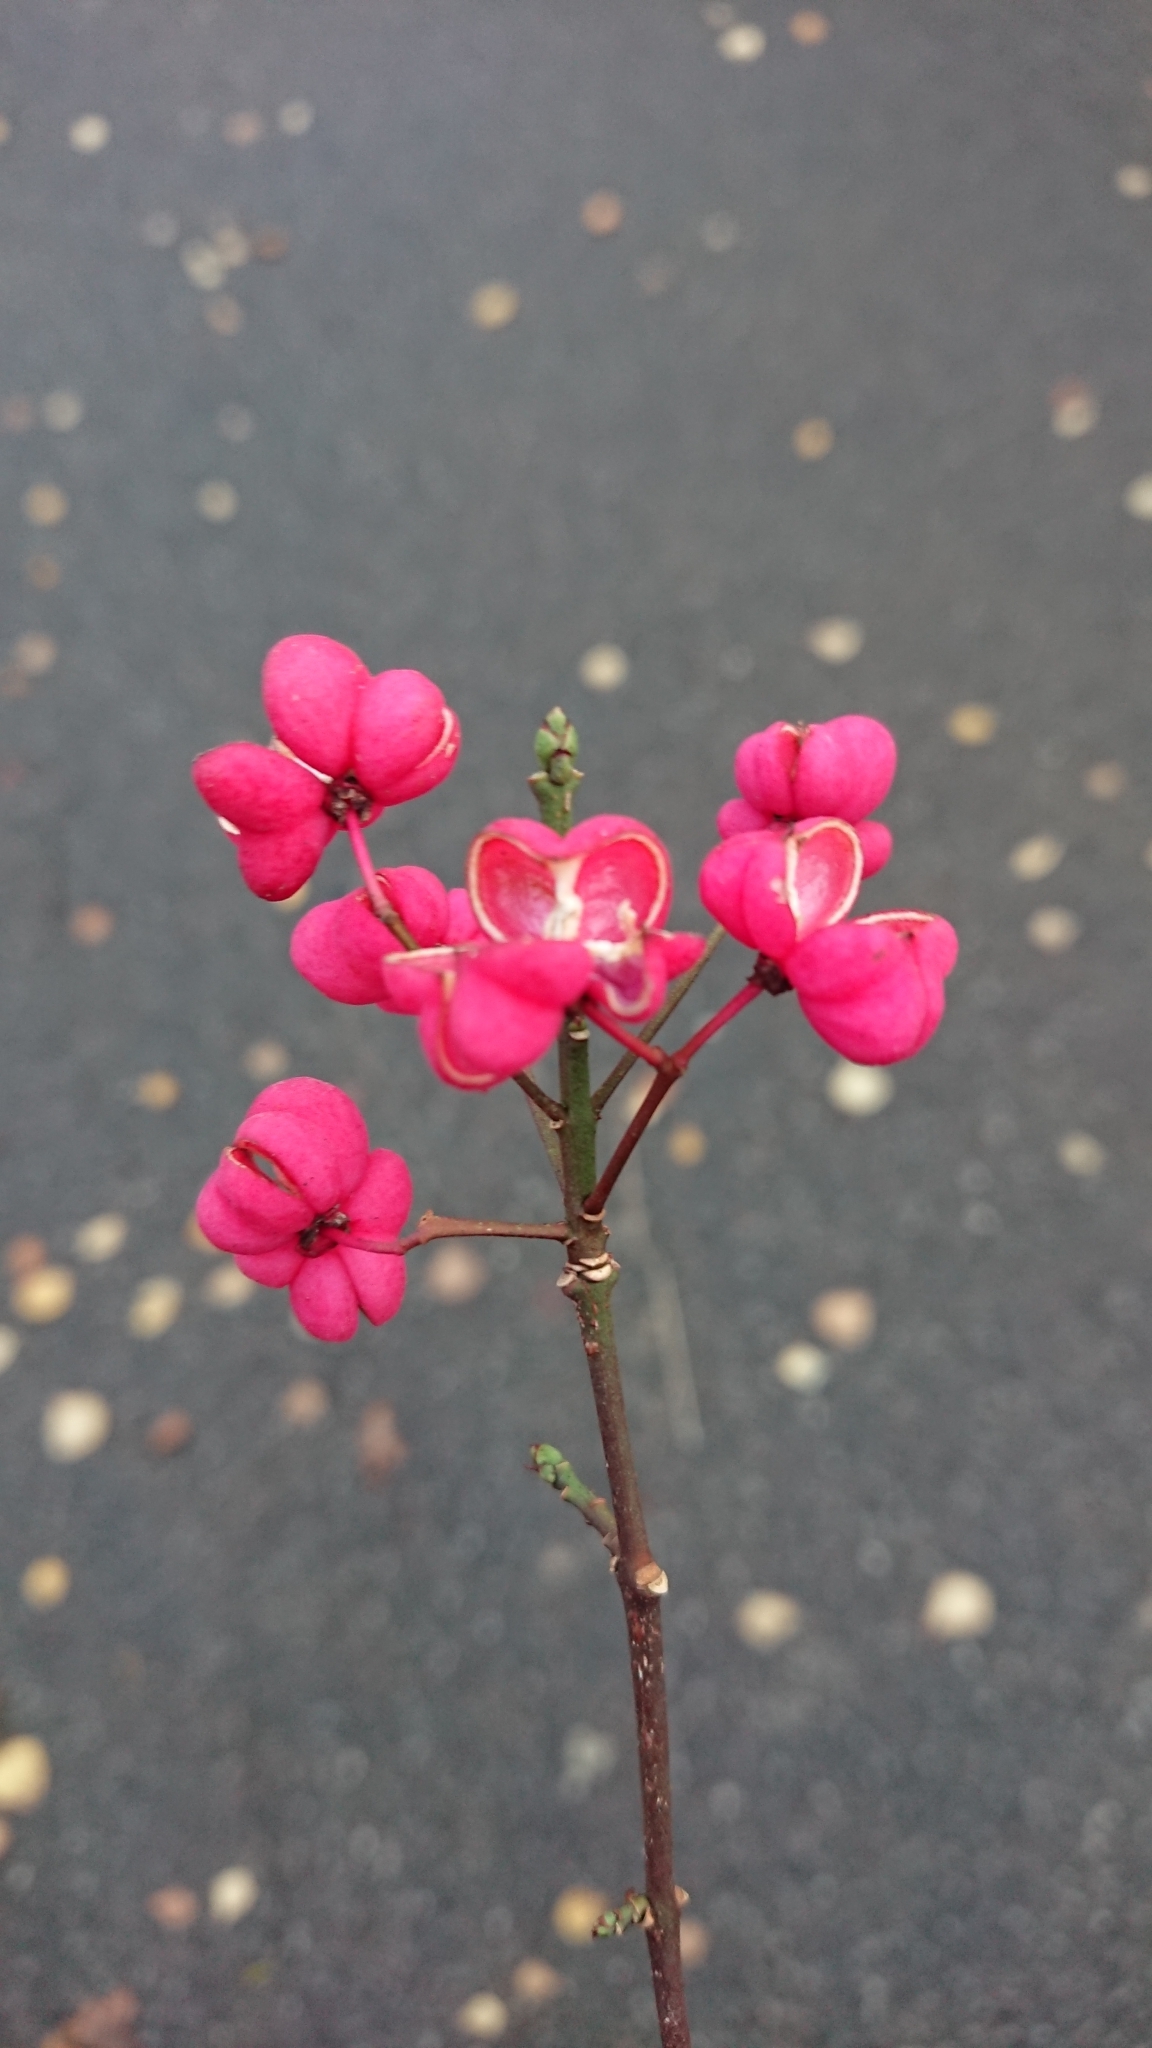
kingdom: Plantae
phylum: Tracheophyta
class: Magnoliopsida
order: Celastrales
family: Celastraceae
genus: Euonymus
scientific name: Euonymus europaeus
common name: Spindle
